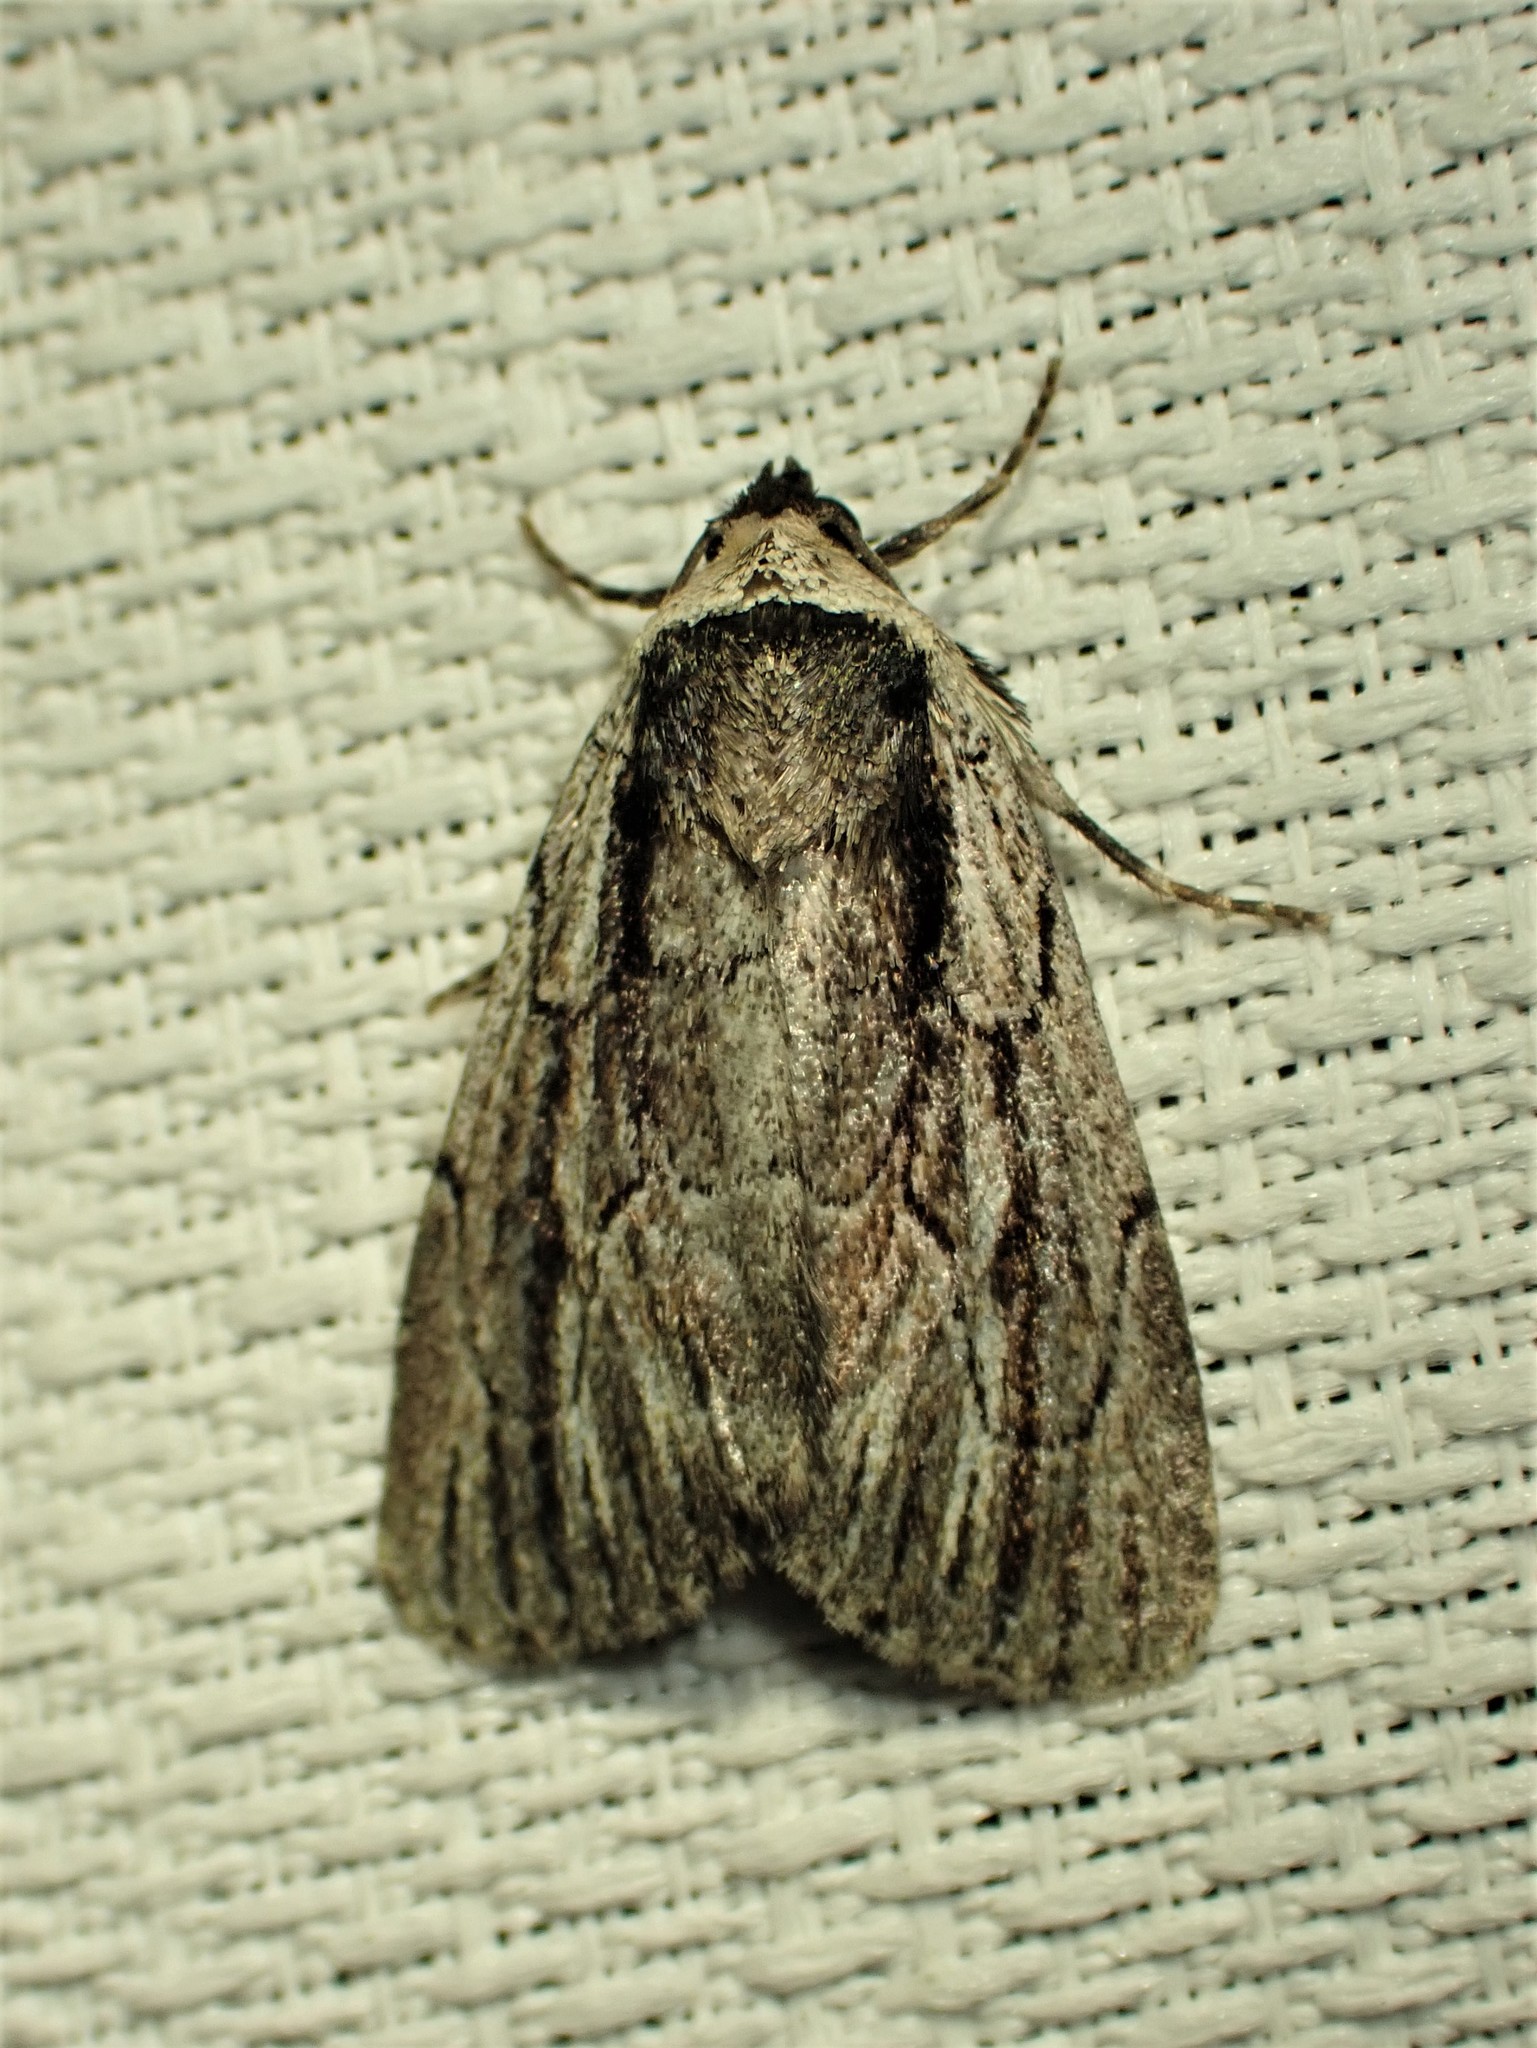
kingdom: Animalia
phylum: Arthropoda
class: Insecta
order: Lepidoptera
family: Noctuidae
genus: Sympistis
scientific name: Sympistis badistriga
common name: Brown-lined sallow moth
